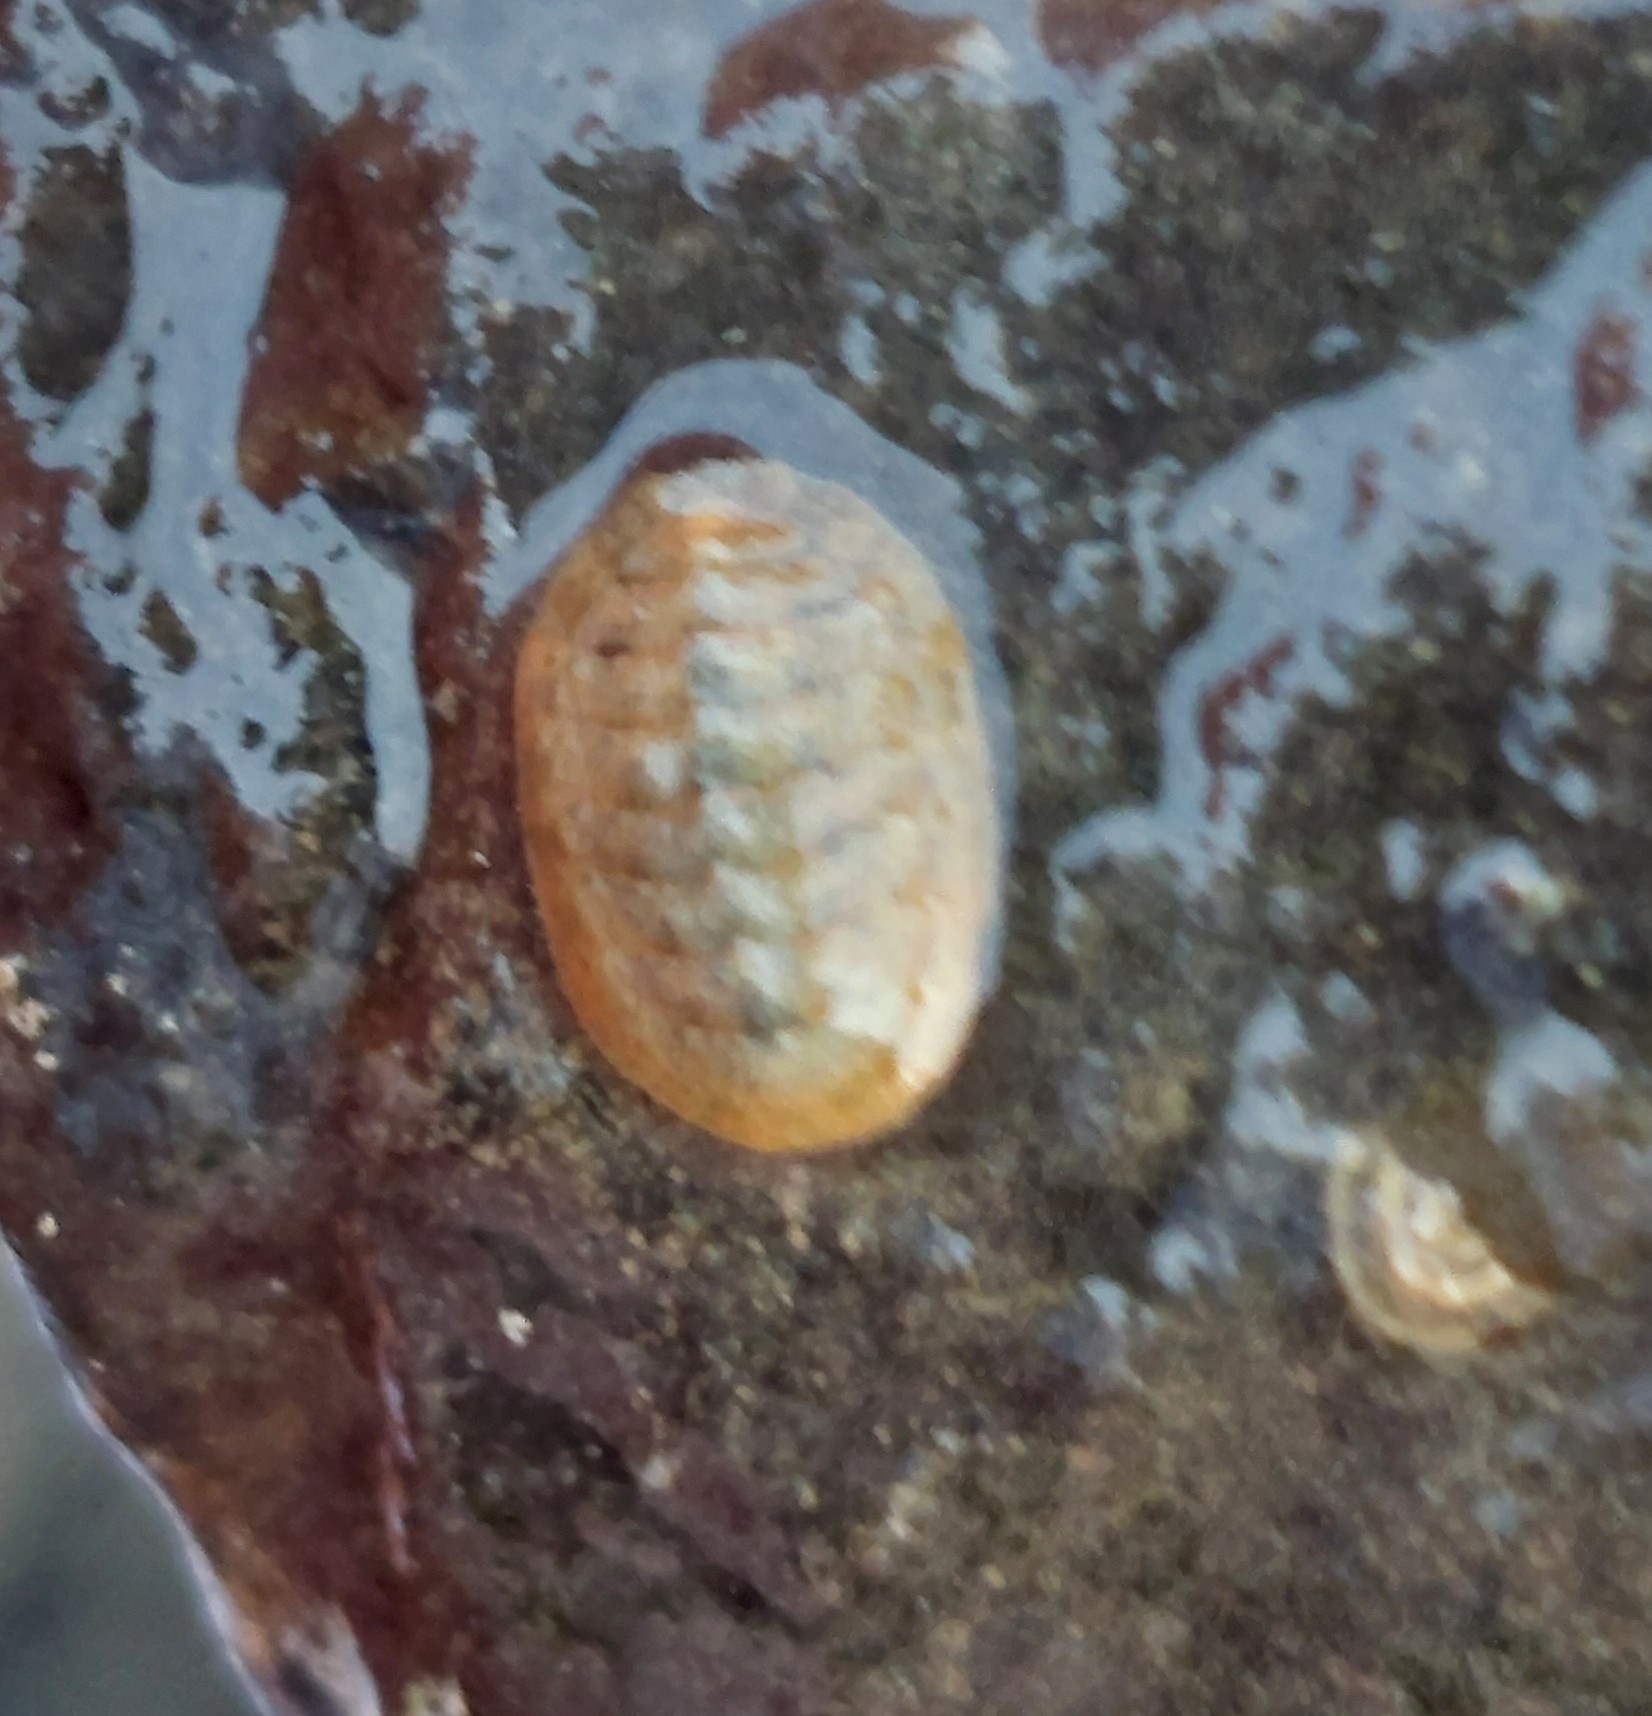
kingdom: Animalia
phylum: Mollusca
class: Polyplacophora
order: Chitonida
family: Tonicellidae
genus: Lepidochitona
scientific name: Lepidochitona cinerea
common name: Cinereous chiton
